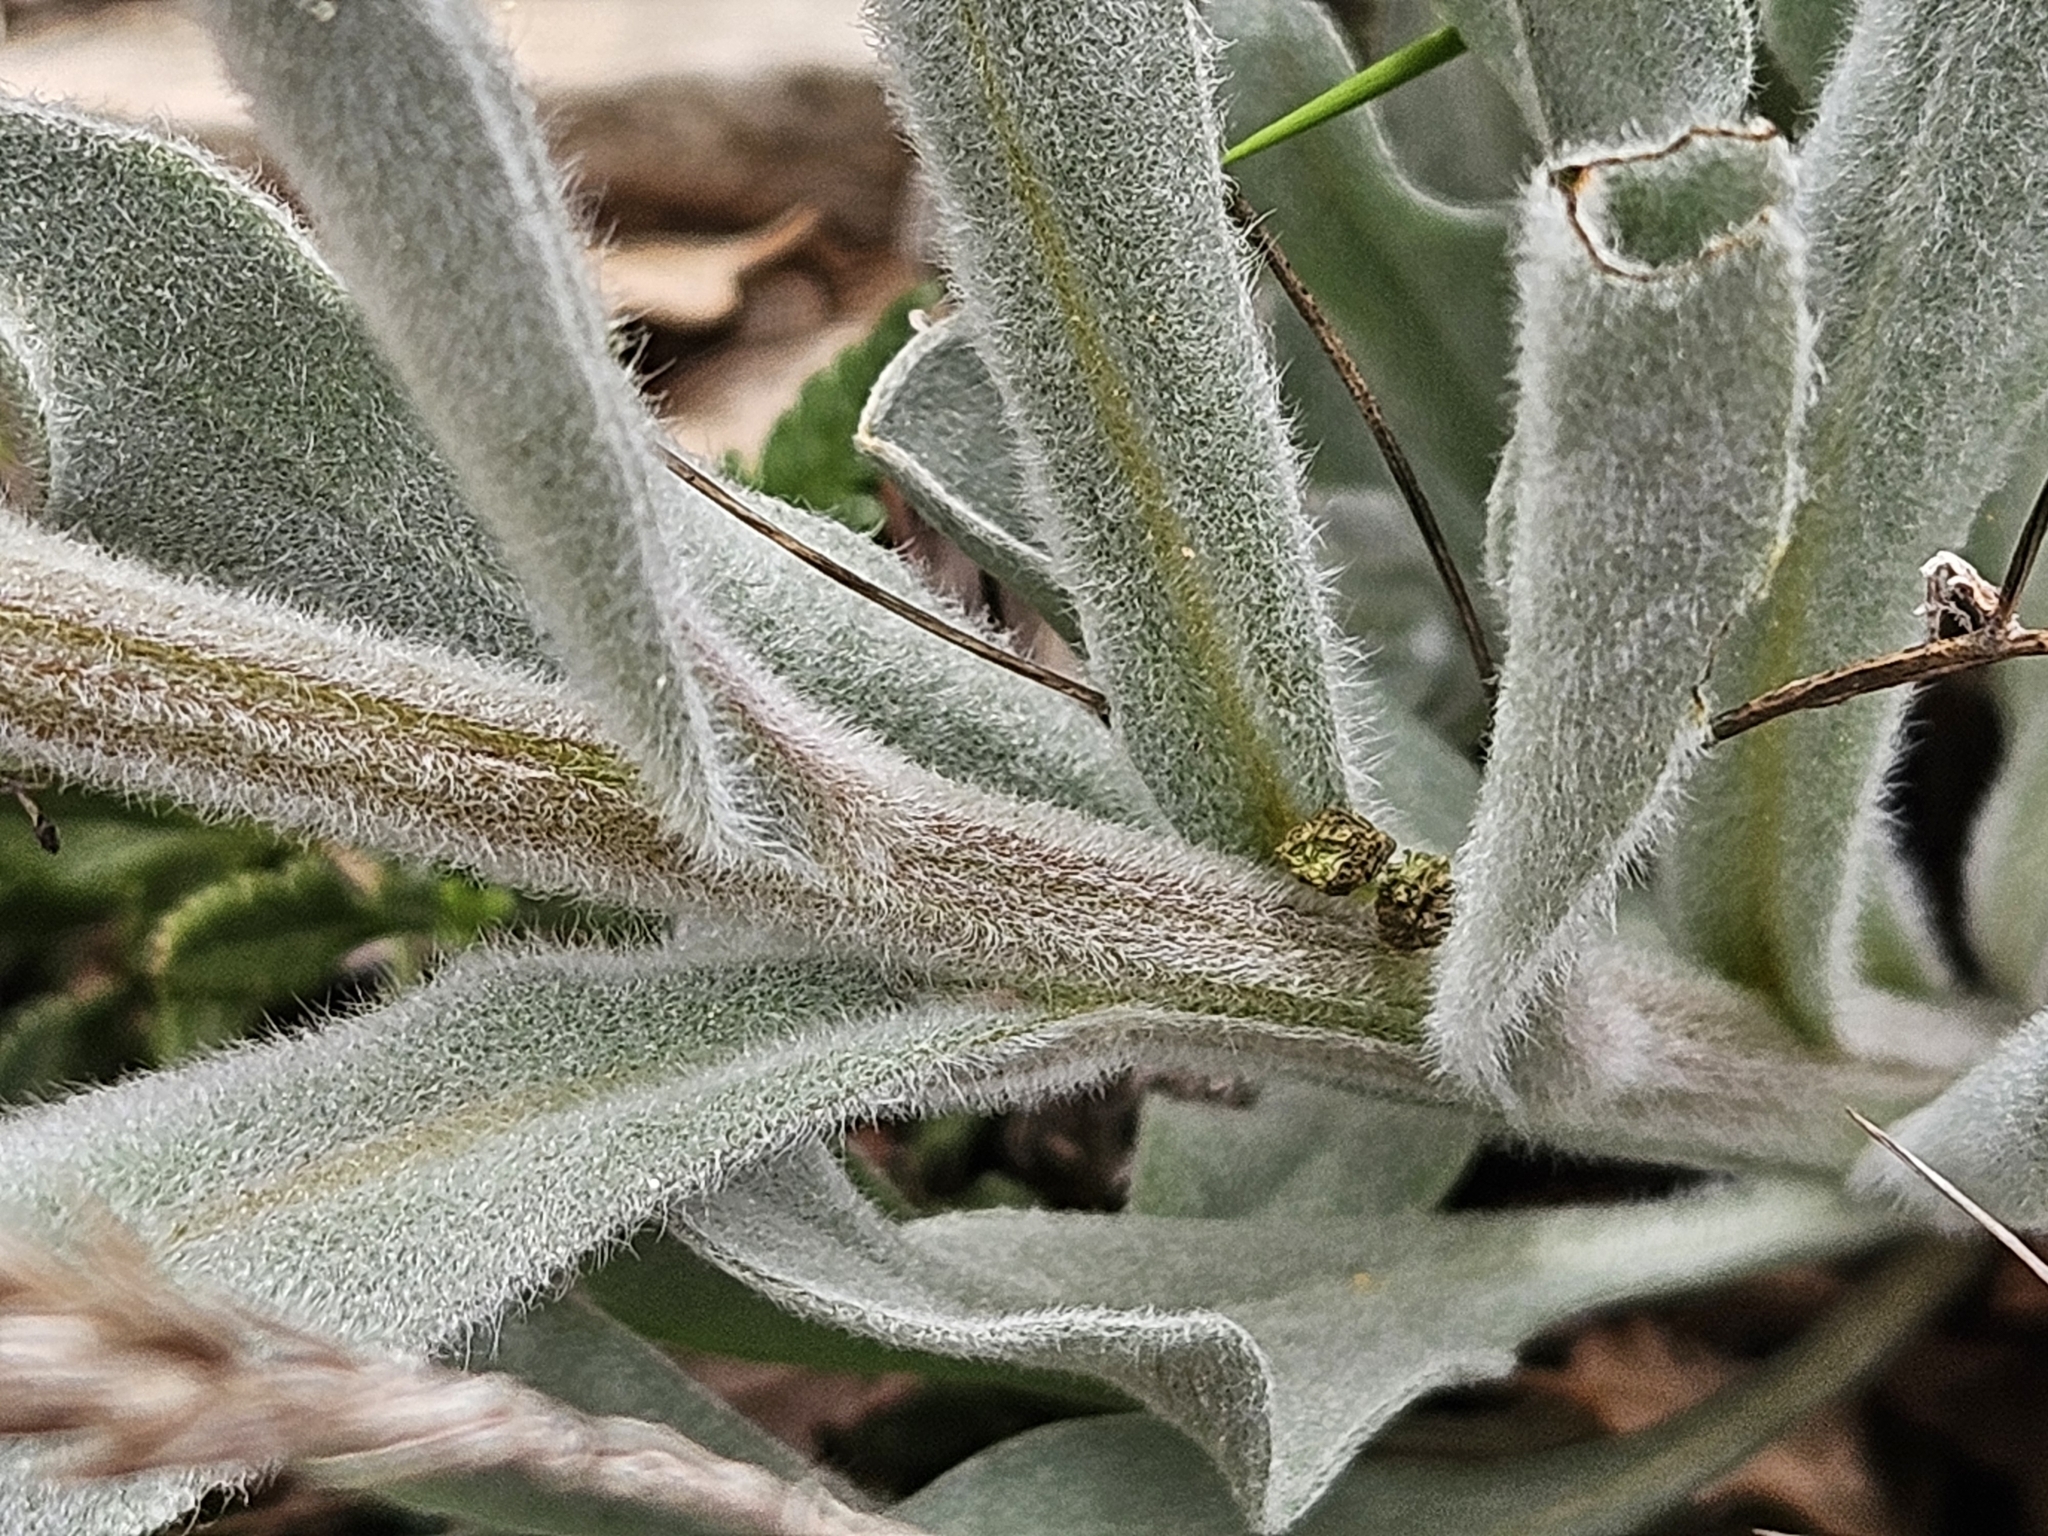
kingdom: Plantae
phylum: Tracheophyta
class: Magnoliopsida
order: Boraginales
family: Boraginaceae
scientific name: Boraginaceae
